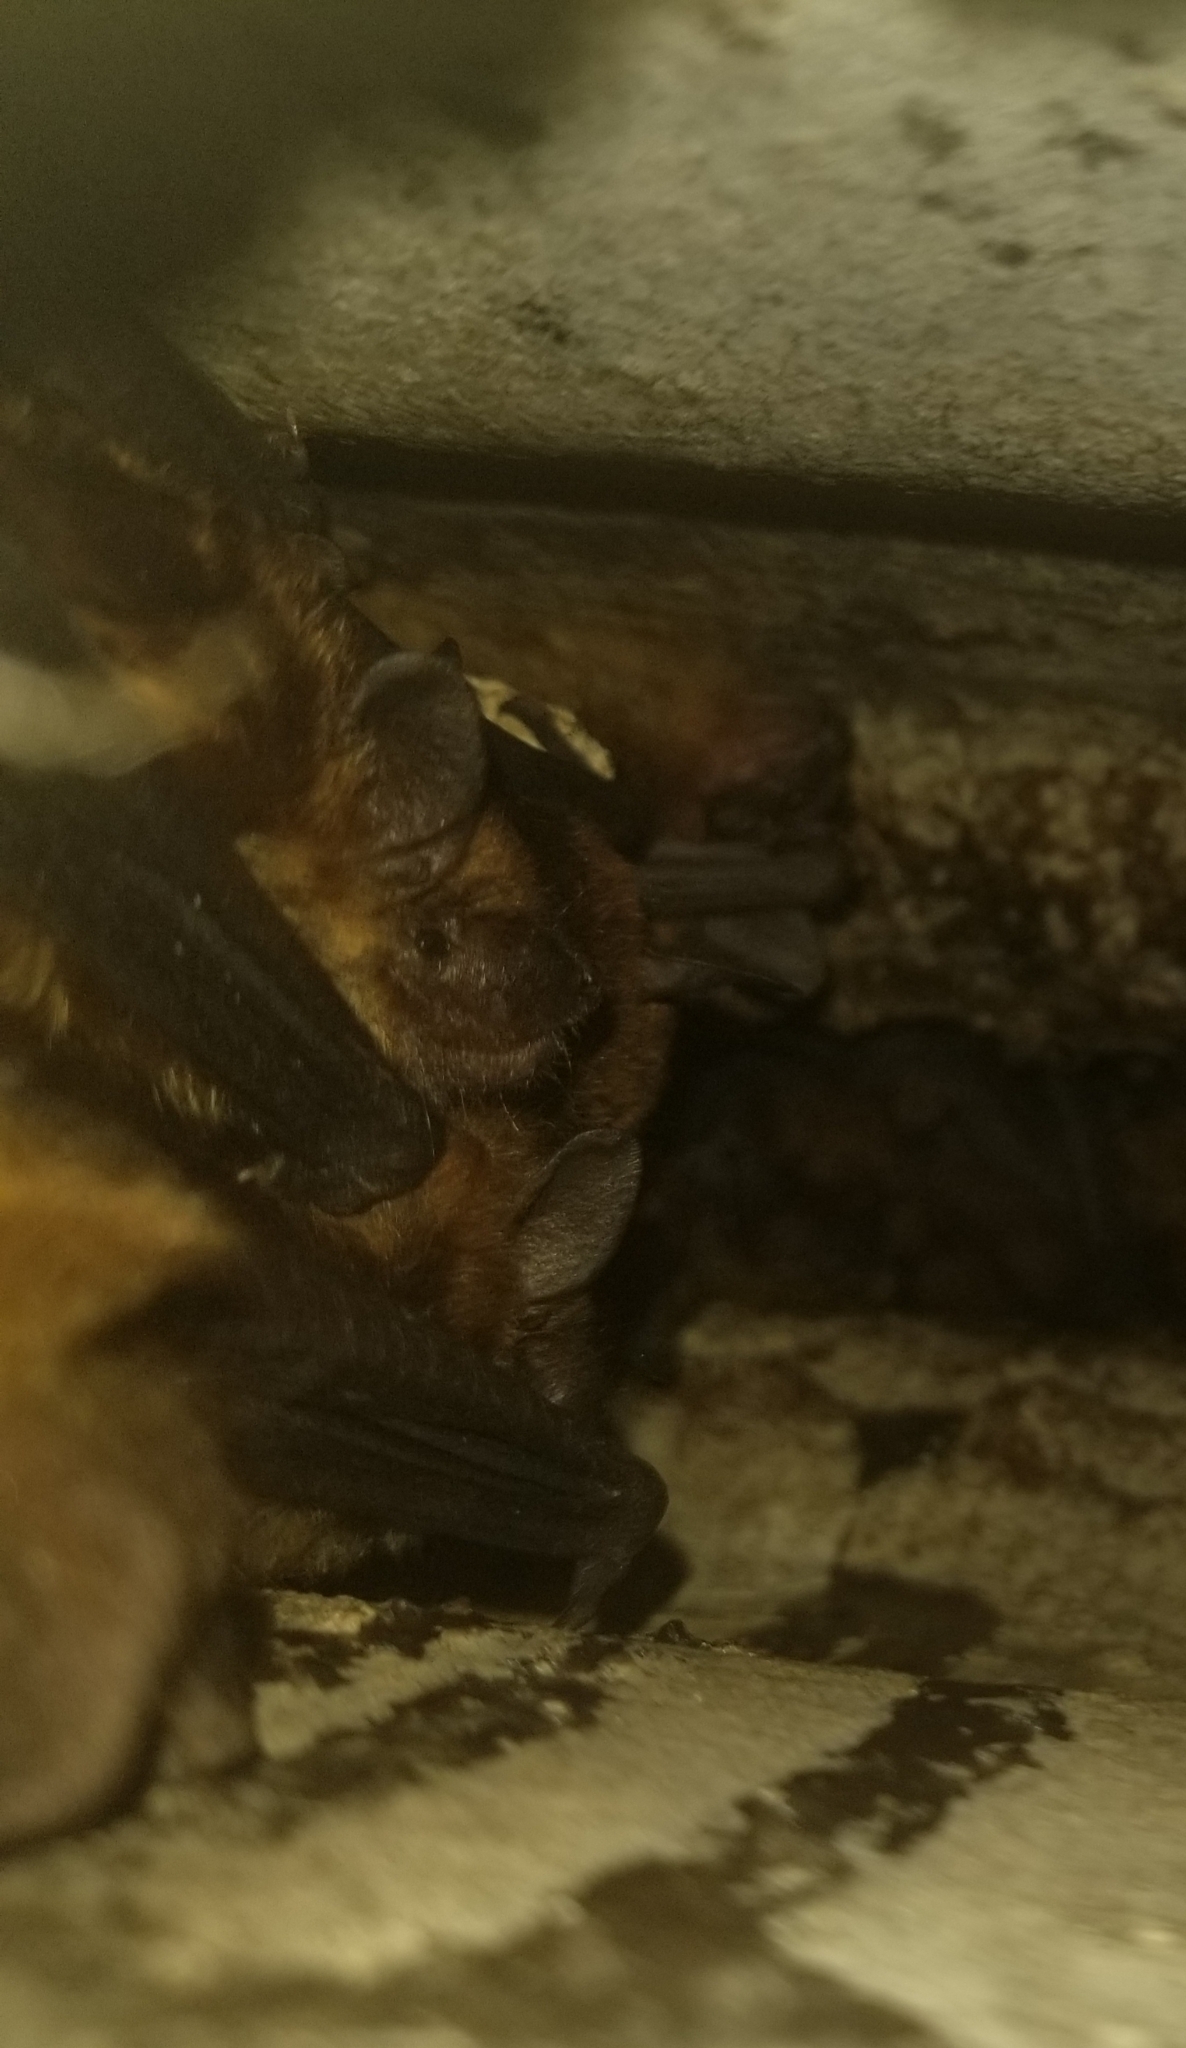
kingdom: Animalia
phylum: Chordata
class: Mammalia
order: Chiroptera
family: Vespertilionidae
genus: Eptesicus
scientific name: Eptesicus fuscus
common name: Big brown bat
